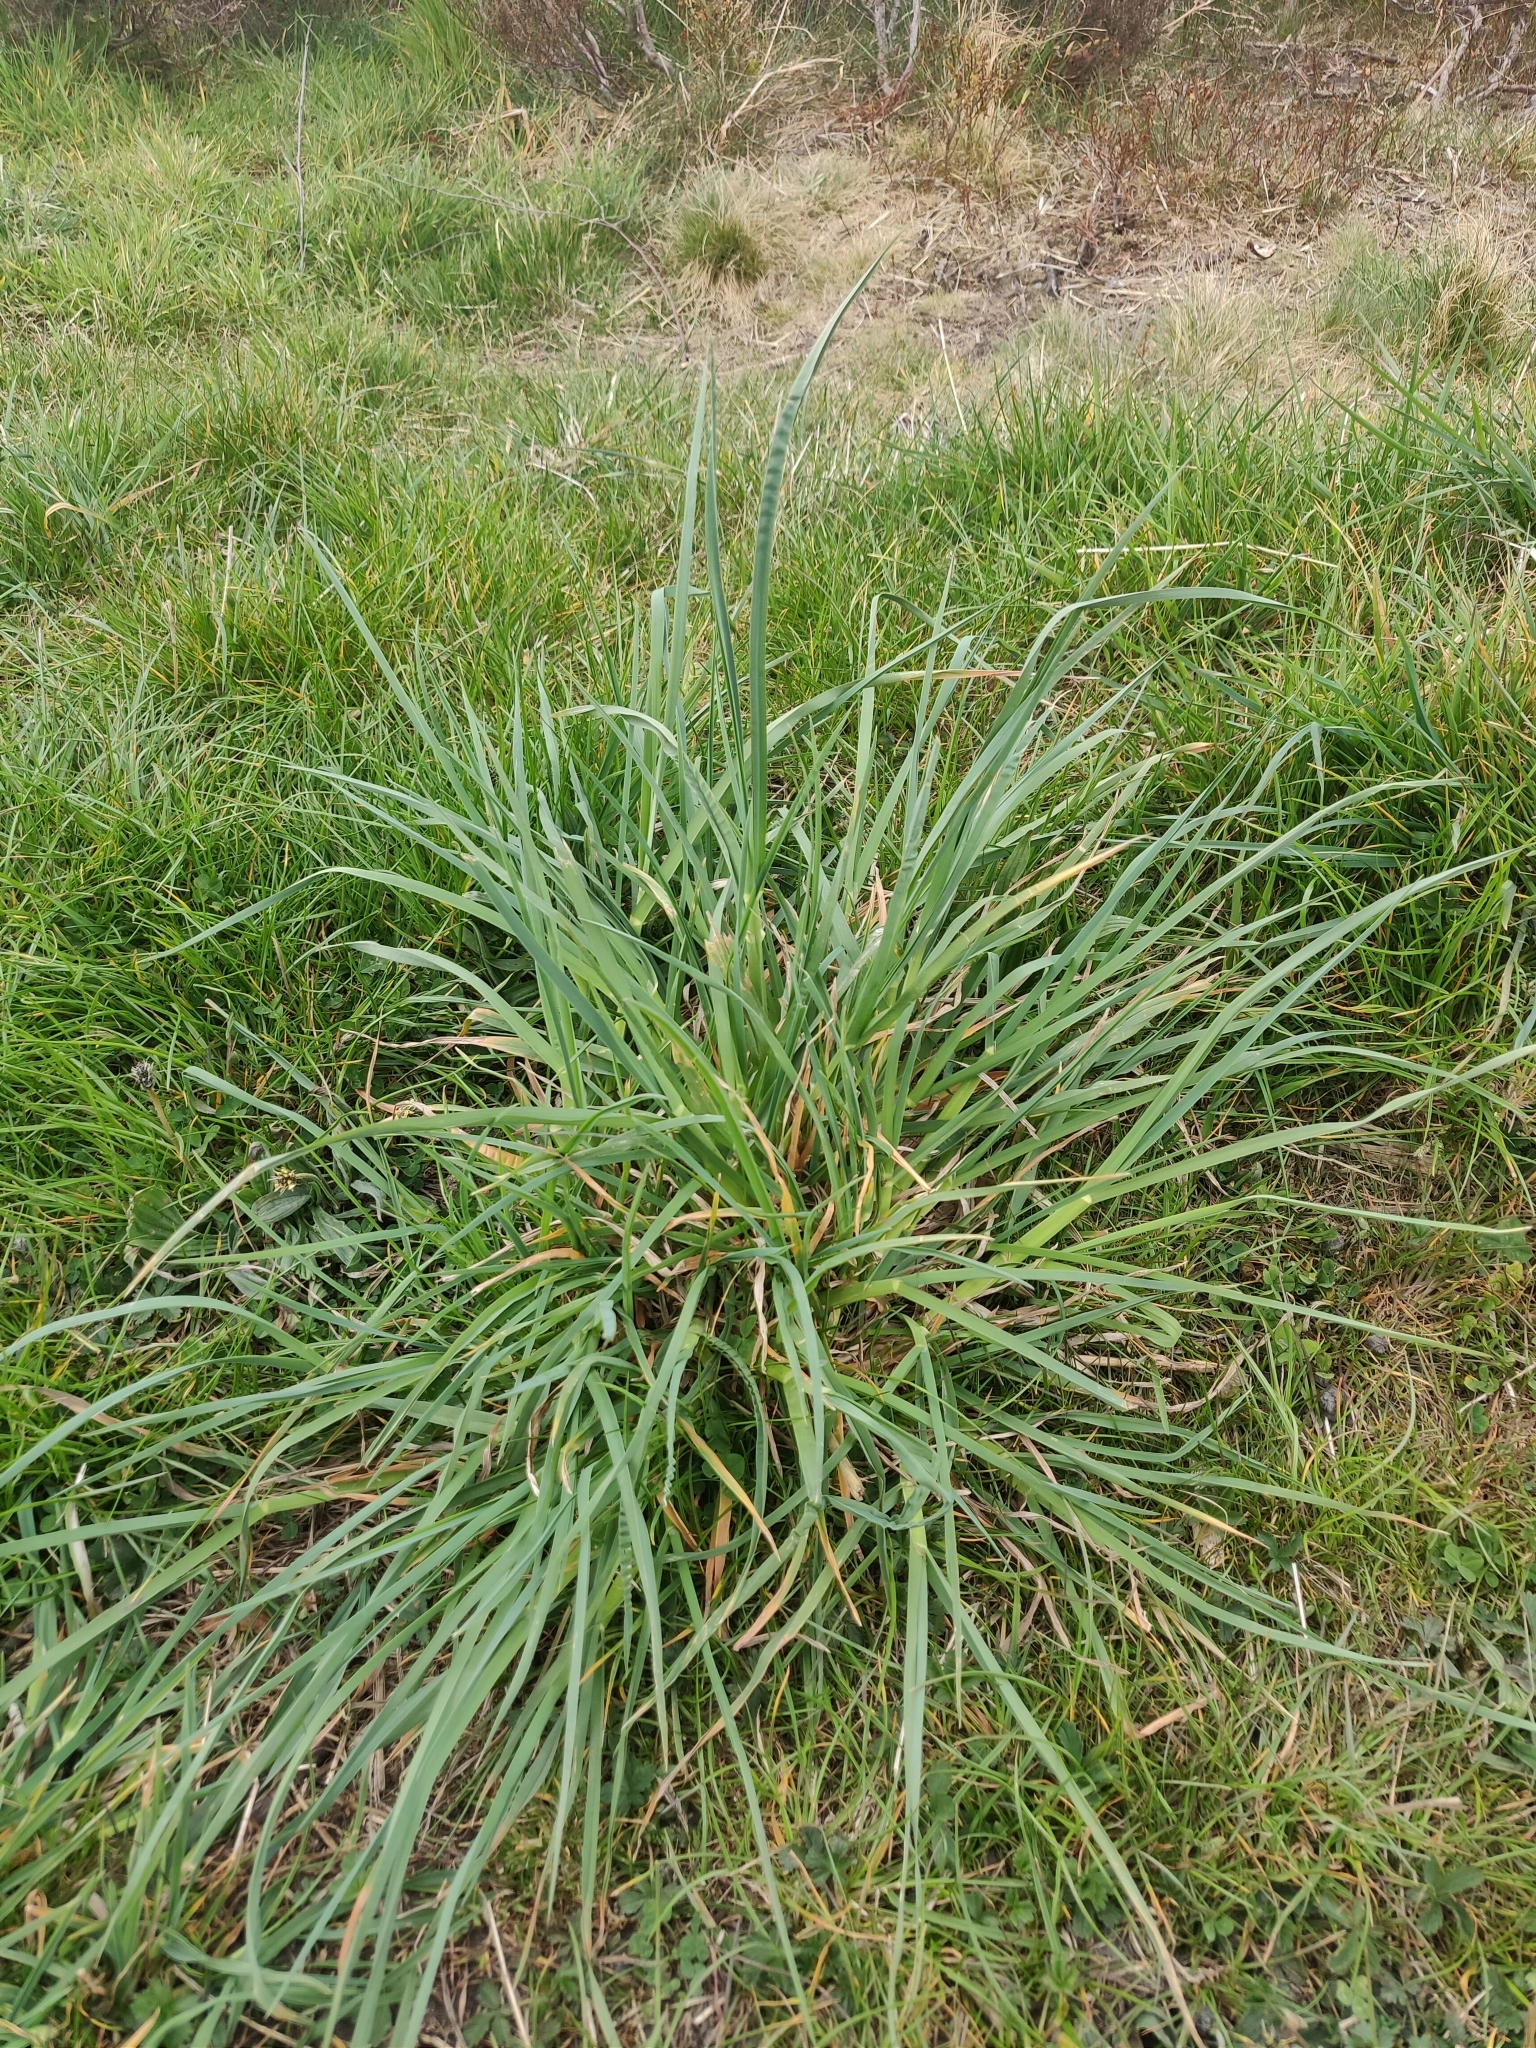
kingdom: Plantae
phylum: Tracheophyta
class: Liliopsida
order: Poales
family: Poaceae
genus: Dactylis
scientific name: Dactylis glomerata
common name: Orchardgrass
